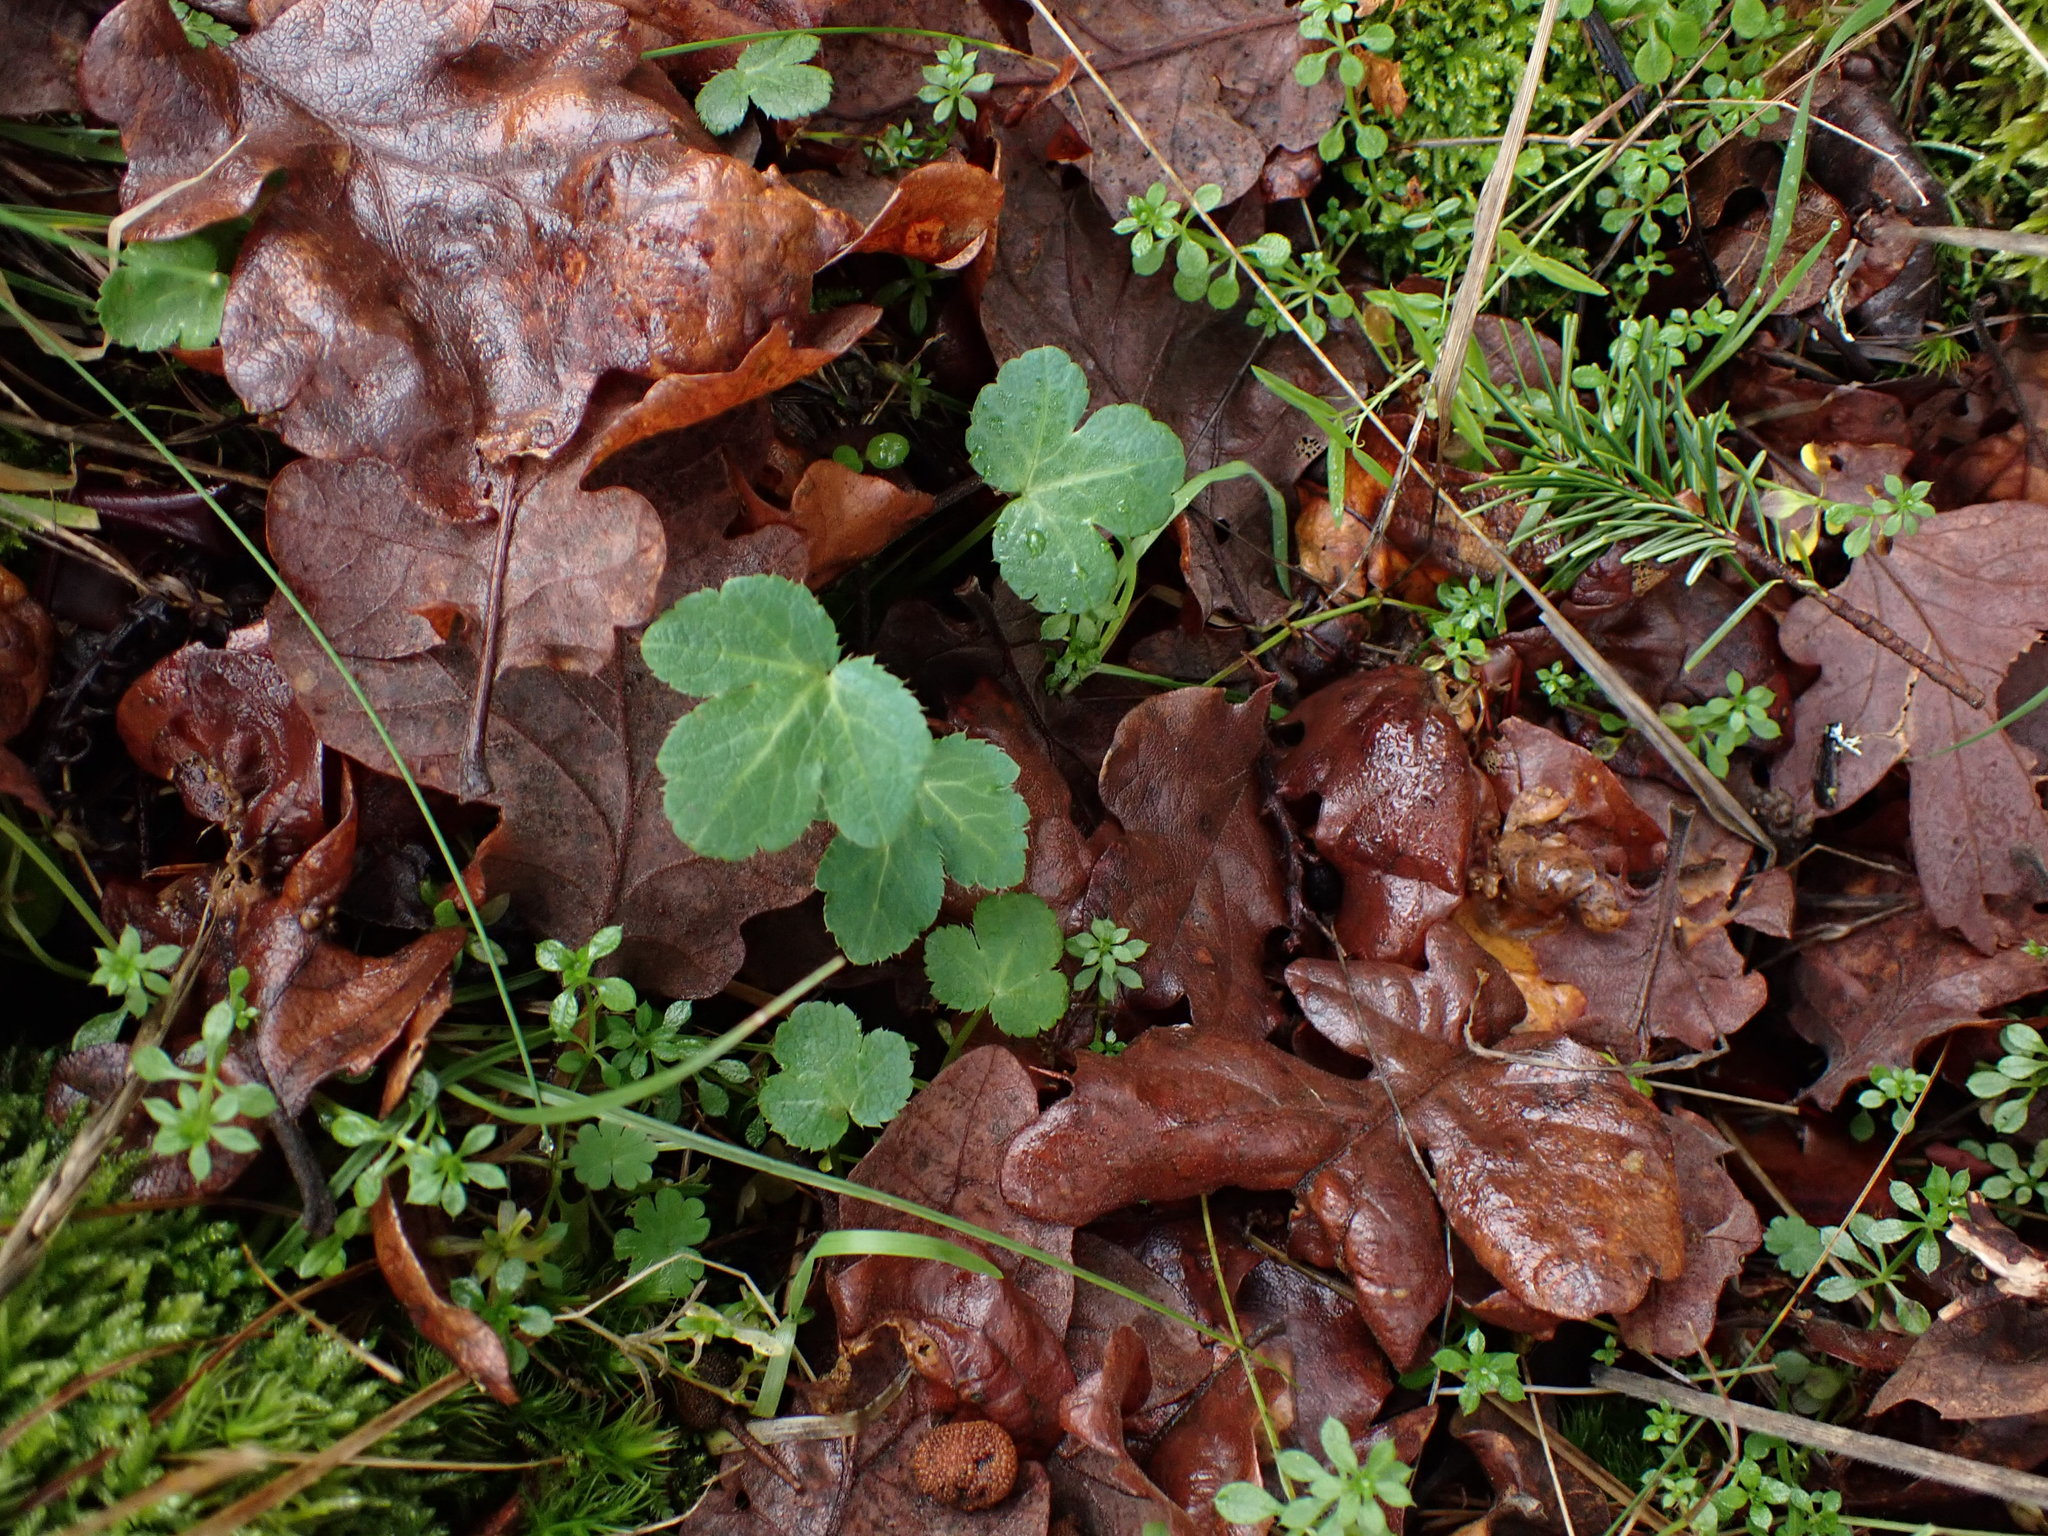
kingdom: Plantae
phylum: Tracheophyta
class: Magnoliopsida
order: Apiales
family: Apiaceae
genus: Sanicula
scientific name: Sanicula crassicaulis
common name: Western snakeroot
